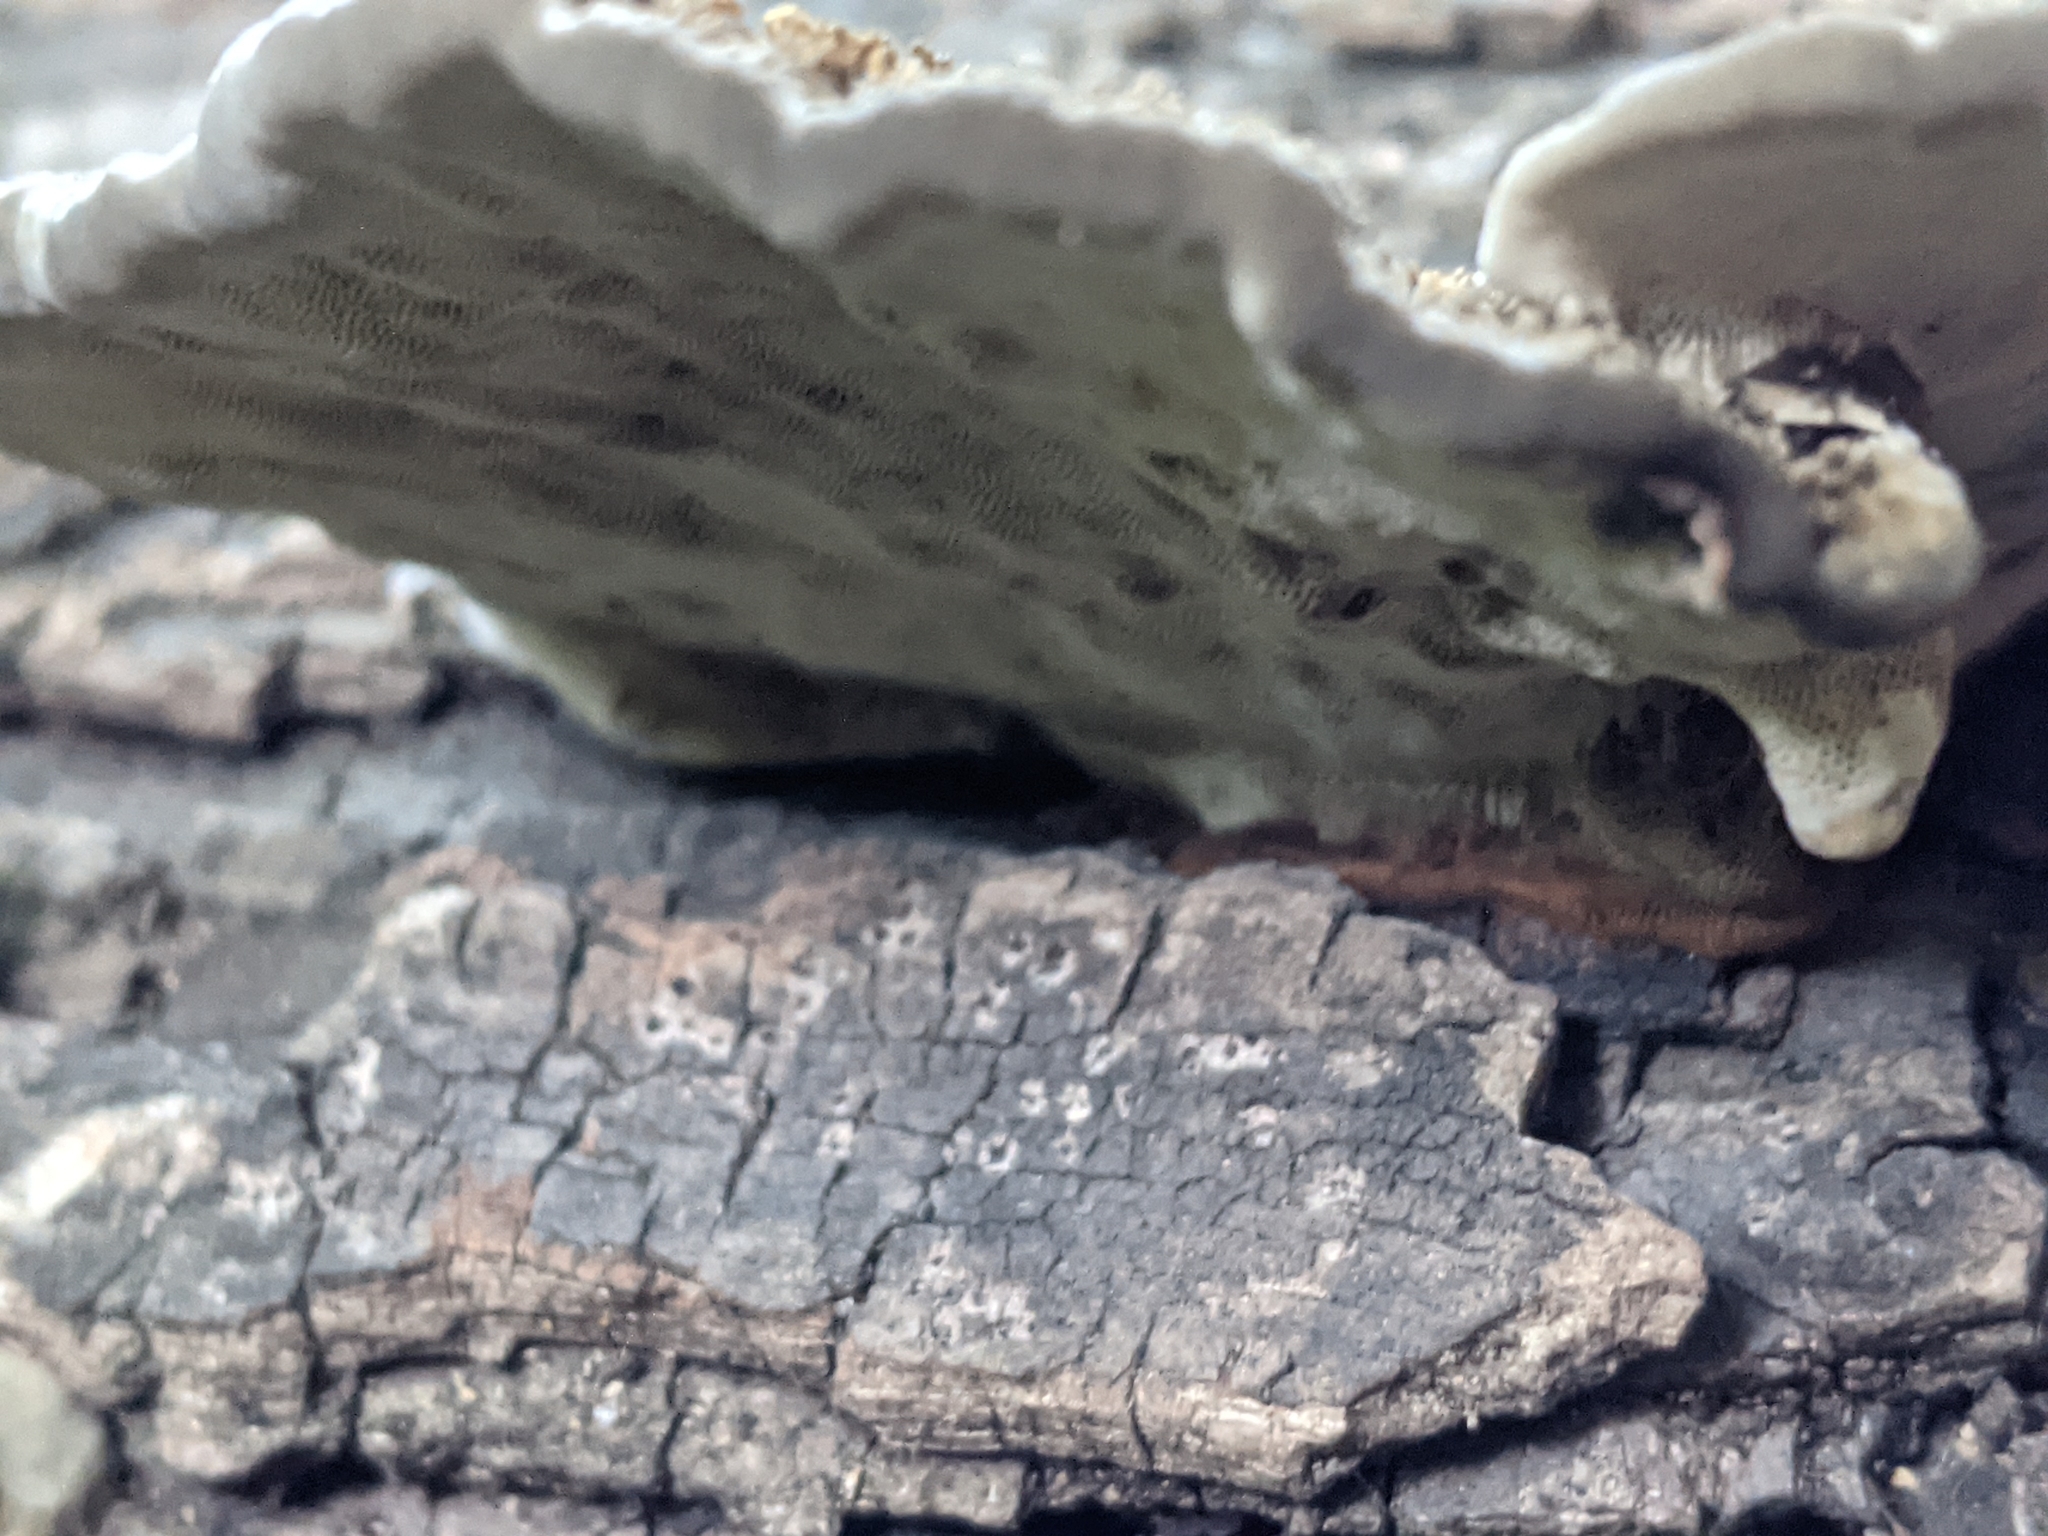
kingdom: Fungi
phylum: Basidiomycota
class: Agaricomycetes
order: Polyporales
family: Cerrenaceae
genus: Cerrena
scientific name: Cerrena hydnoides
